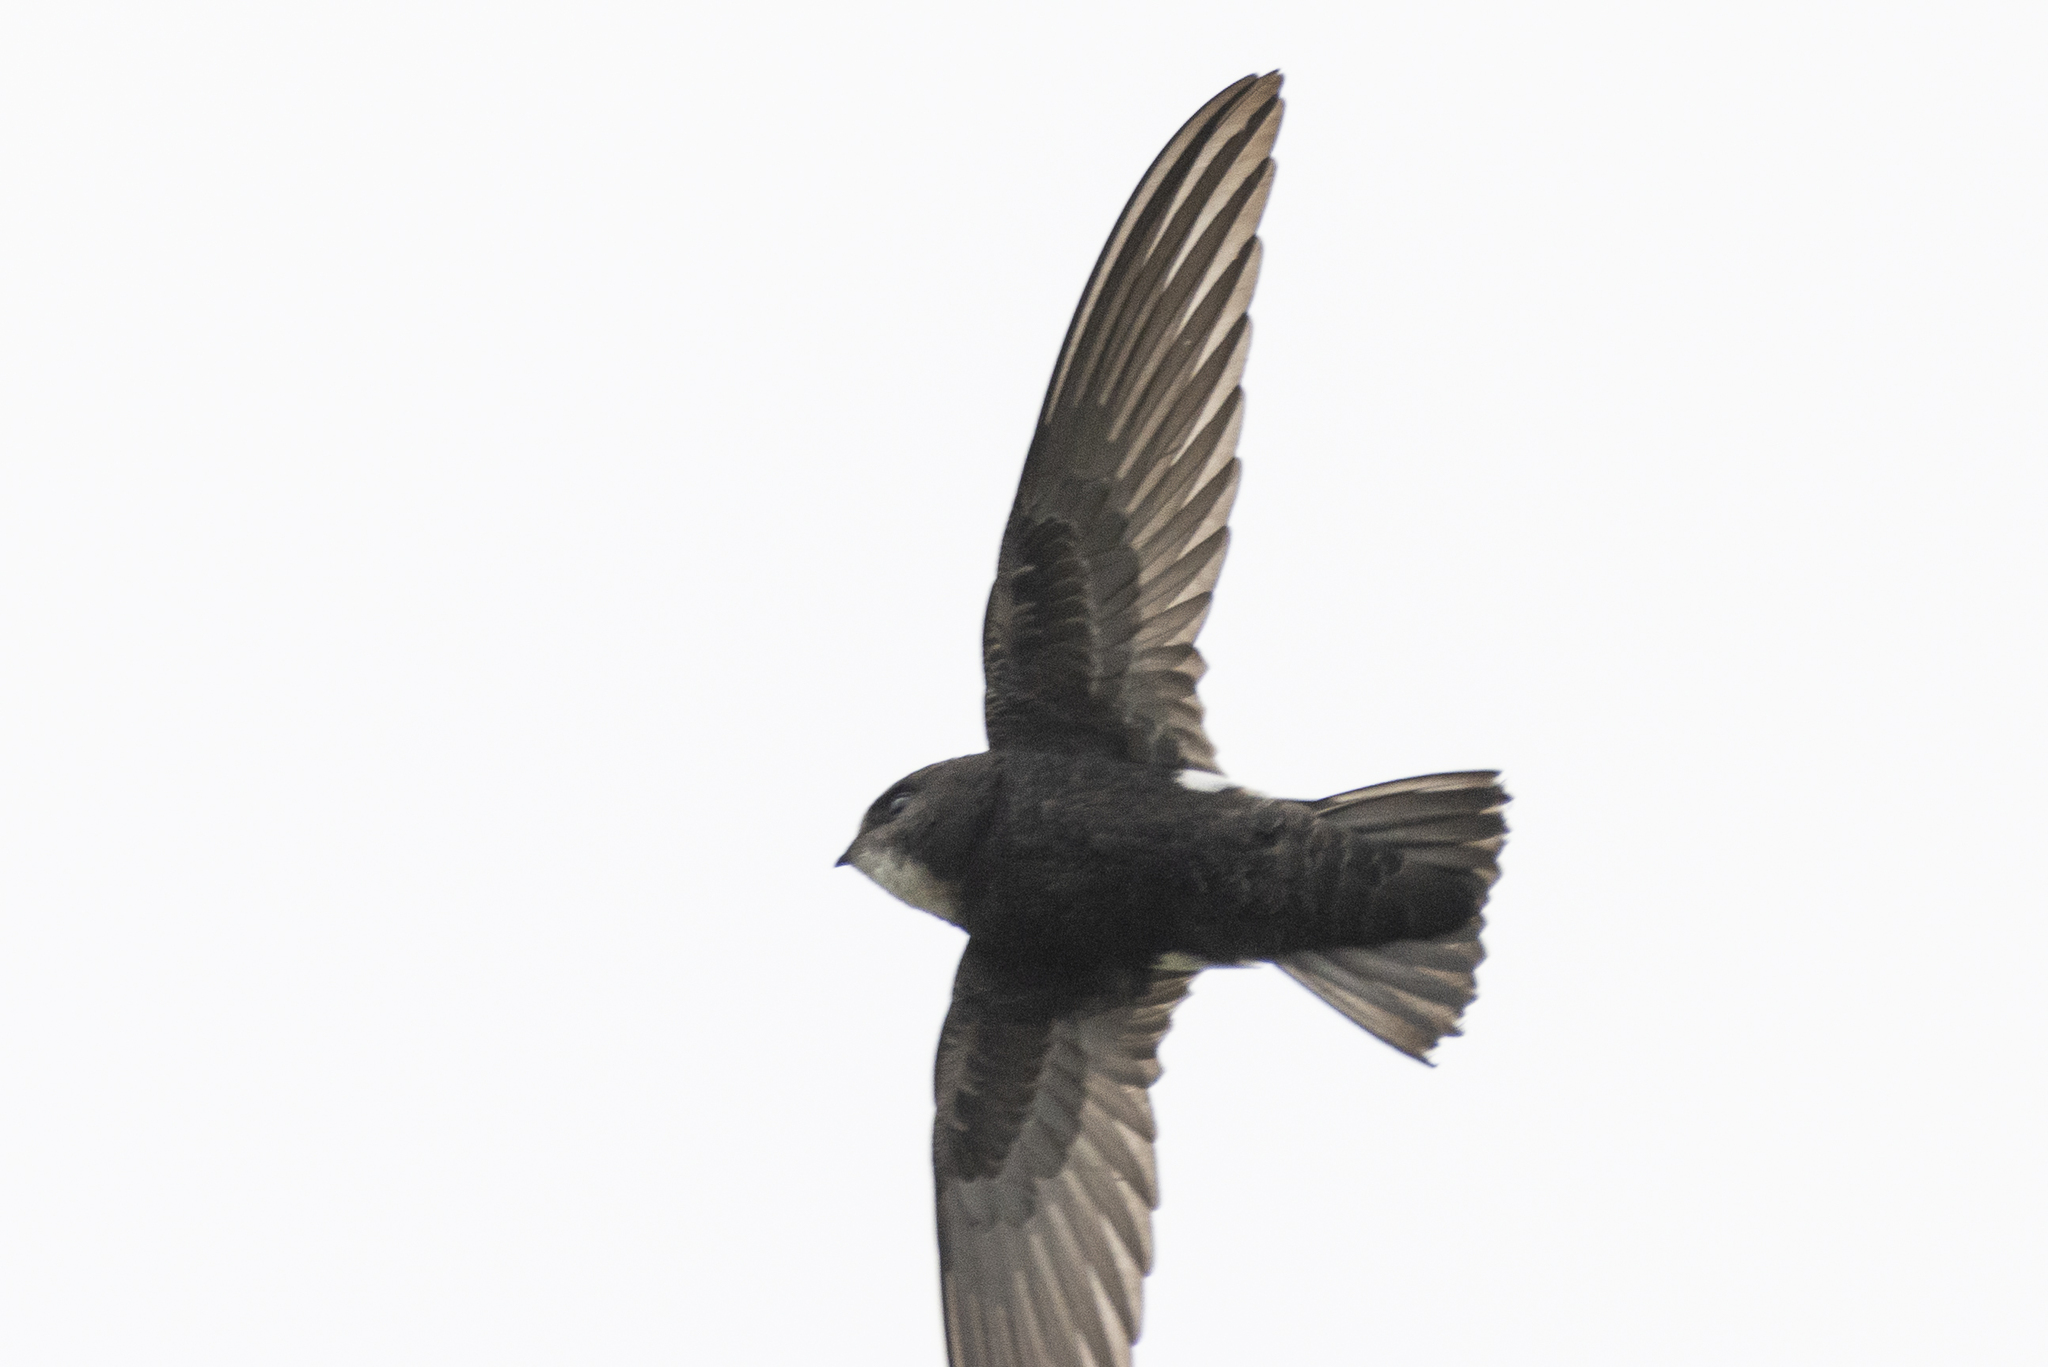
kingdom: Animalia
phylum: Chordata
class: Aves
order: Apodiformes
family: Apodidae
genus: Apus
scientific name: Apus nipalensis
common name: House swift
